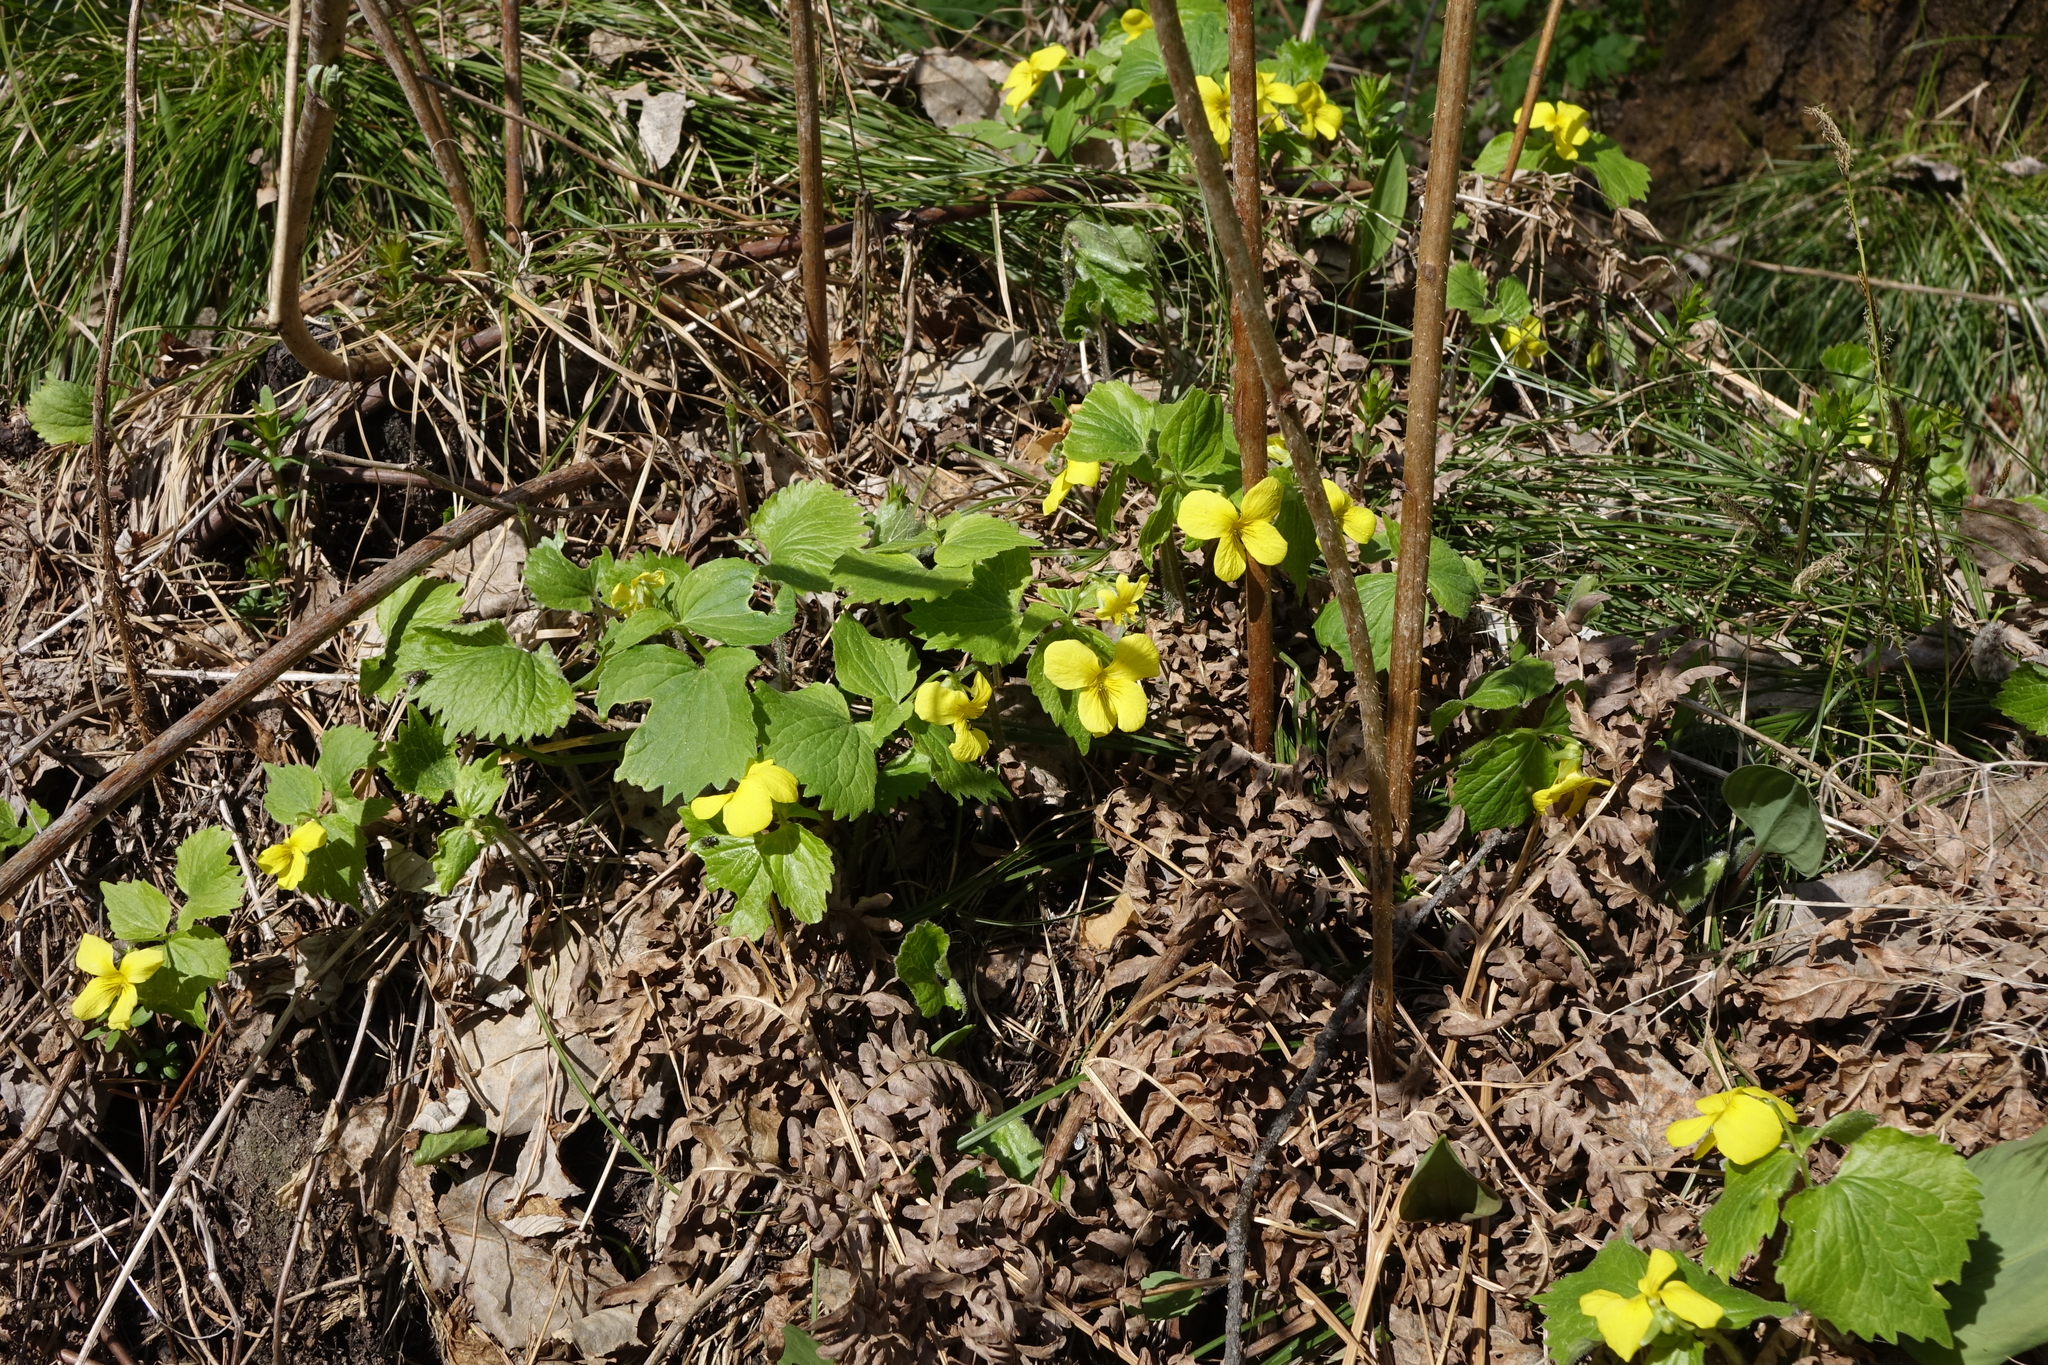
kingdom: Plantae
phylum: Tracheophyta
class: Magnoliopsida
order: Malpighiales
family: Violaceae
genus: Viola
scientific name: Viola uniflora
